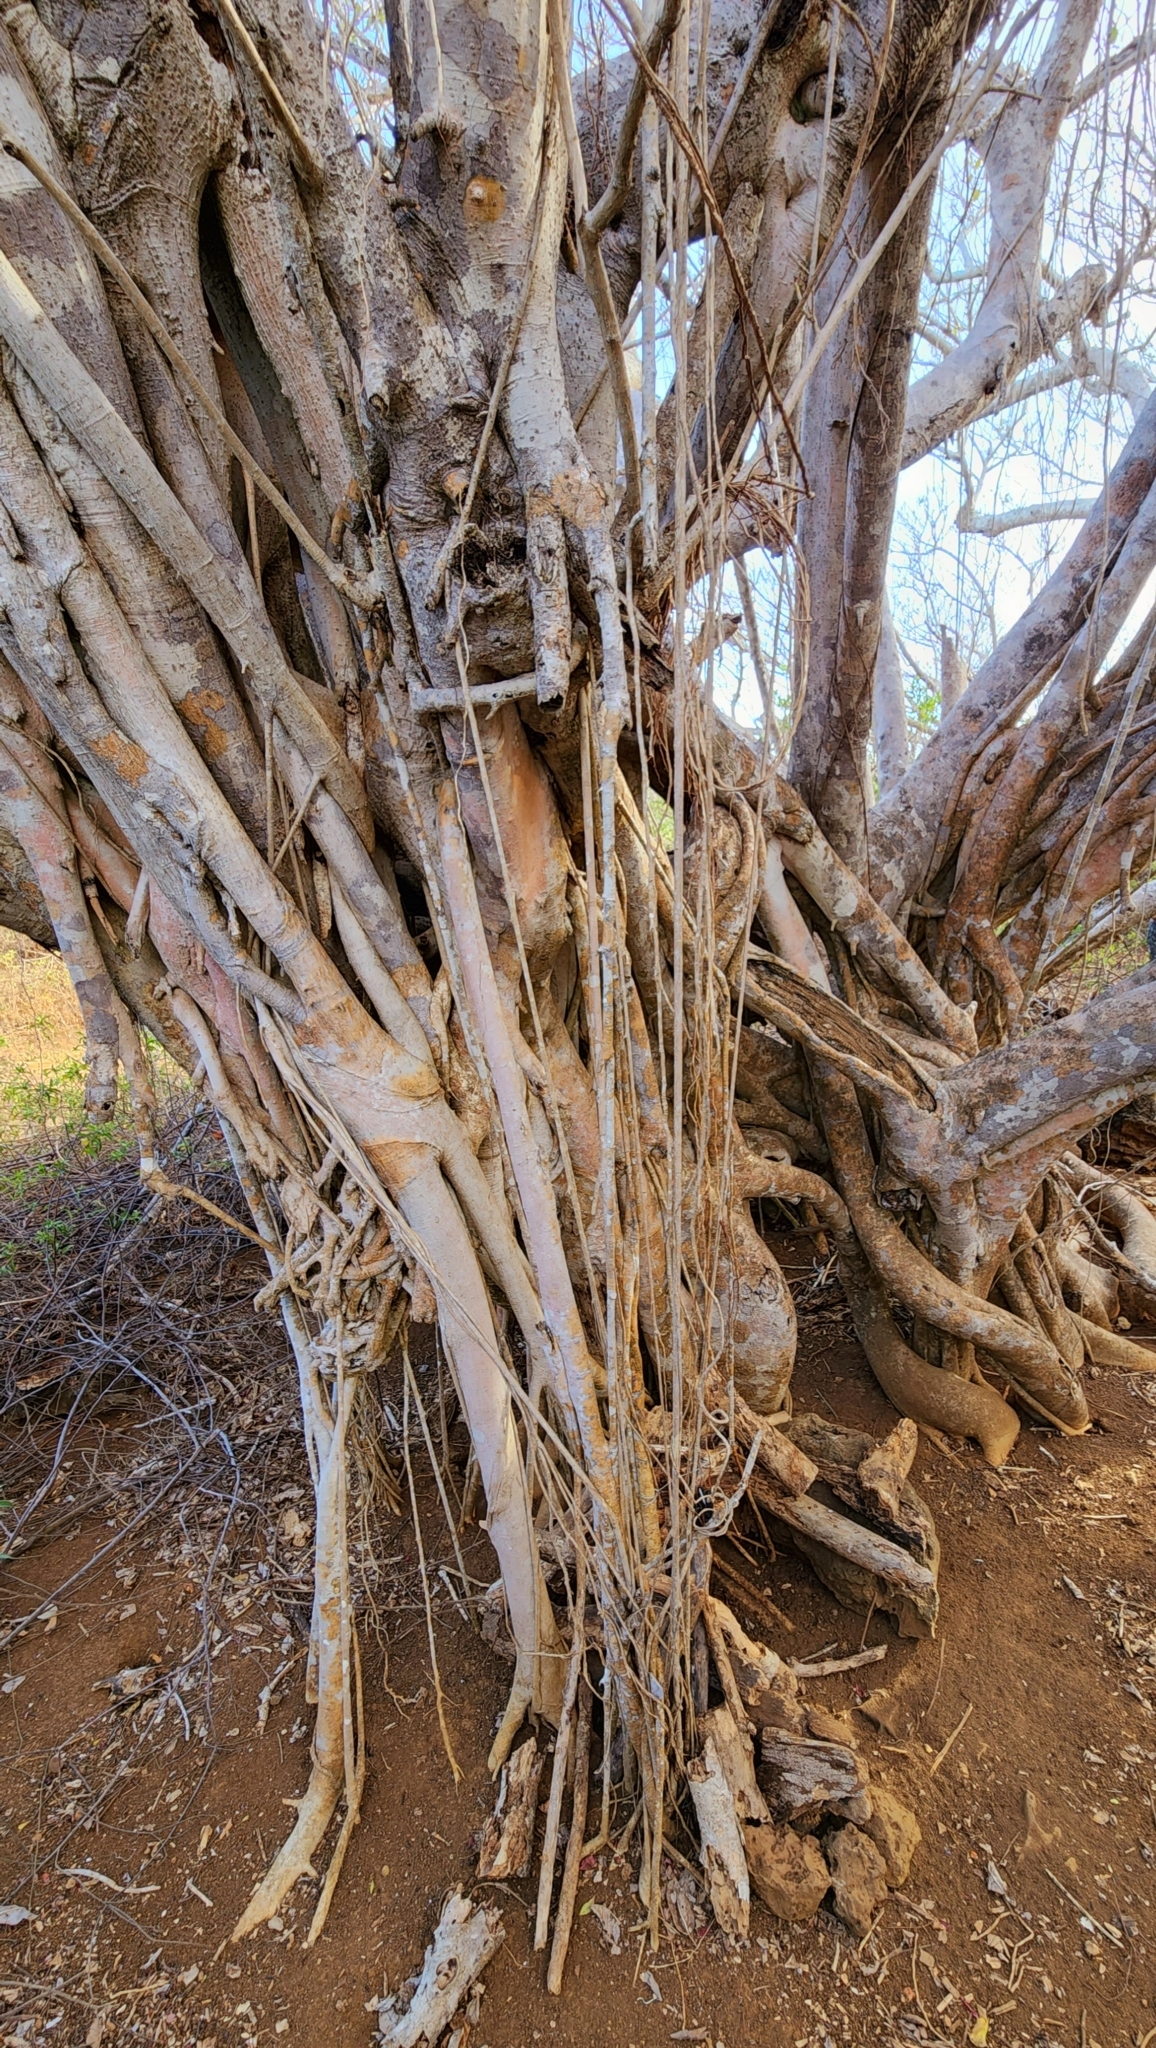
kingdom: Plantae
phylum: Tracheophyta
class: Magnoliopsida
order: Rosales
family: Moraceae
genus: Ficus
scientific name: Ficus cotinifolia
